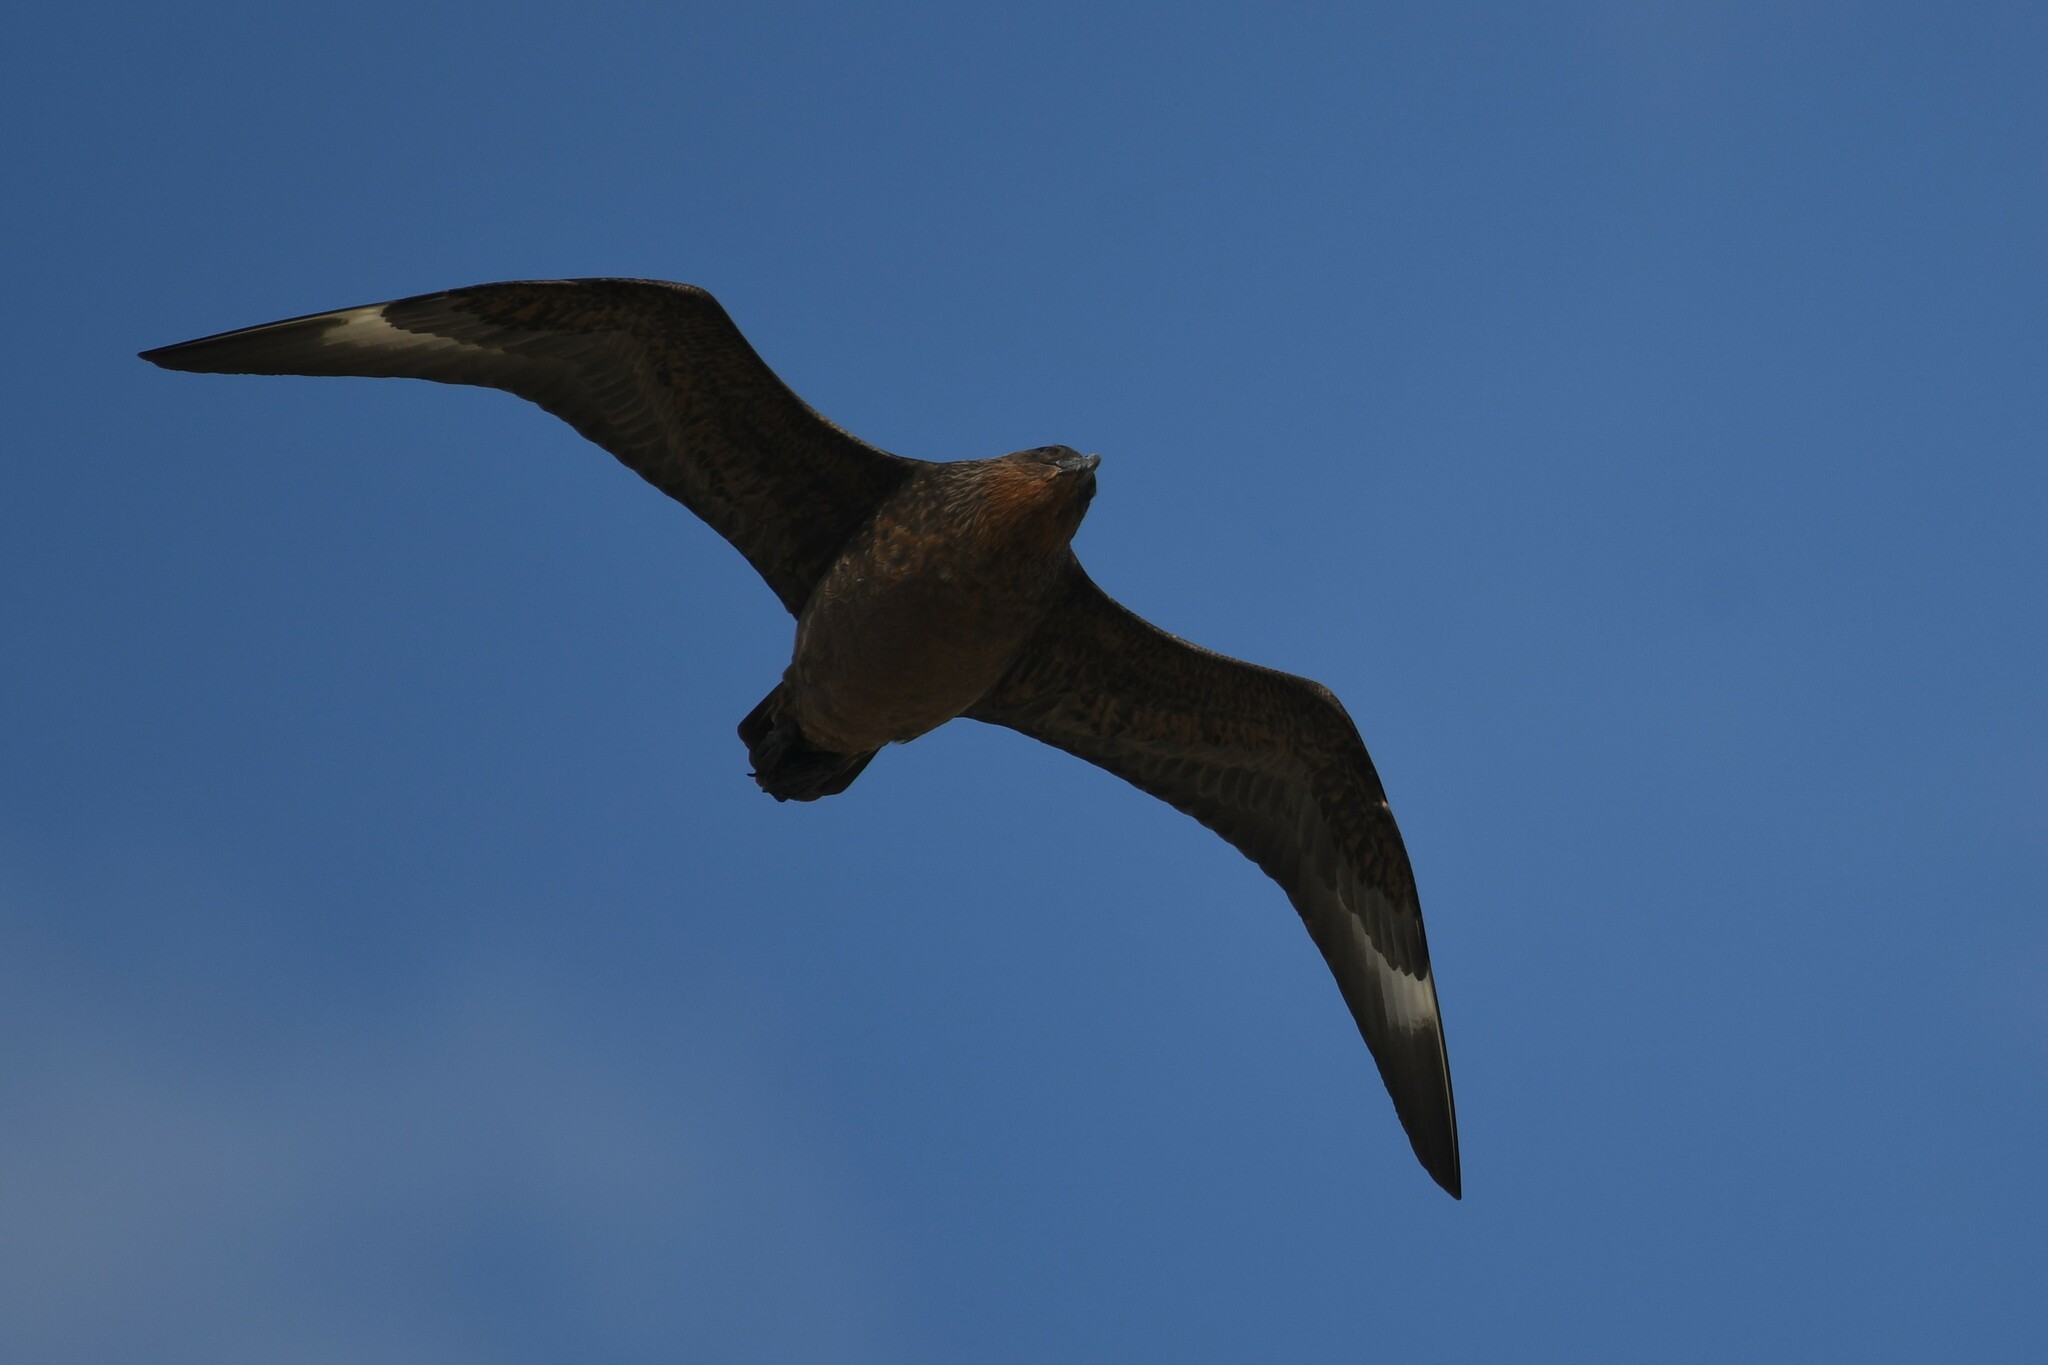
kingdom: Animalia
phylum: Chordata
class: Aves
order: Charadriiformes
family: Stercorariidae
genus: Stercorarius
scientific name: Stercorarius chilensis
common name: Chilean skua
